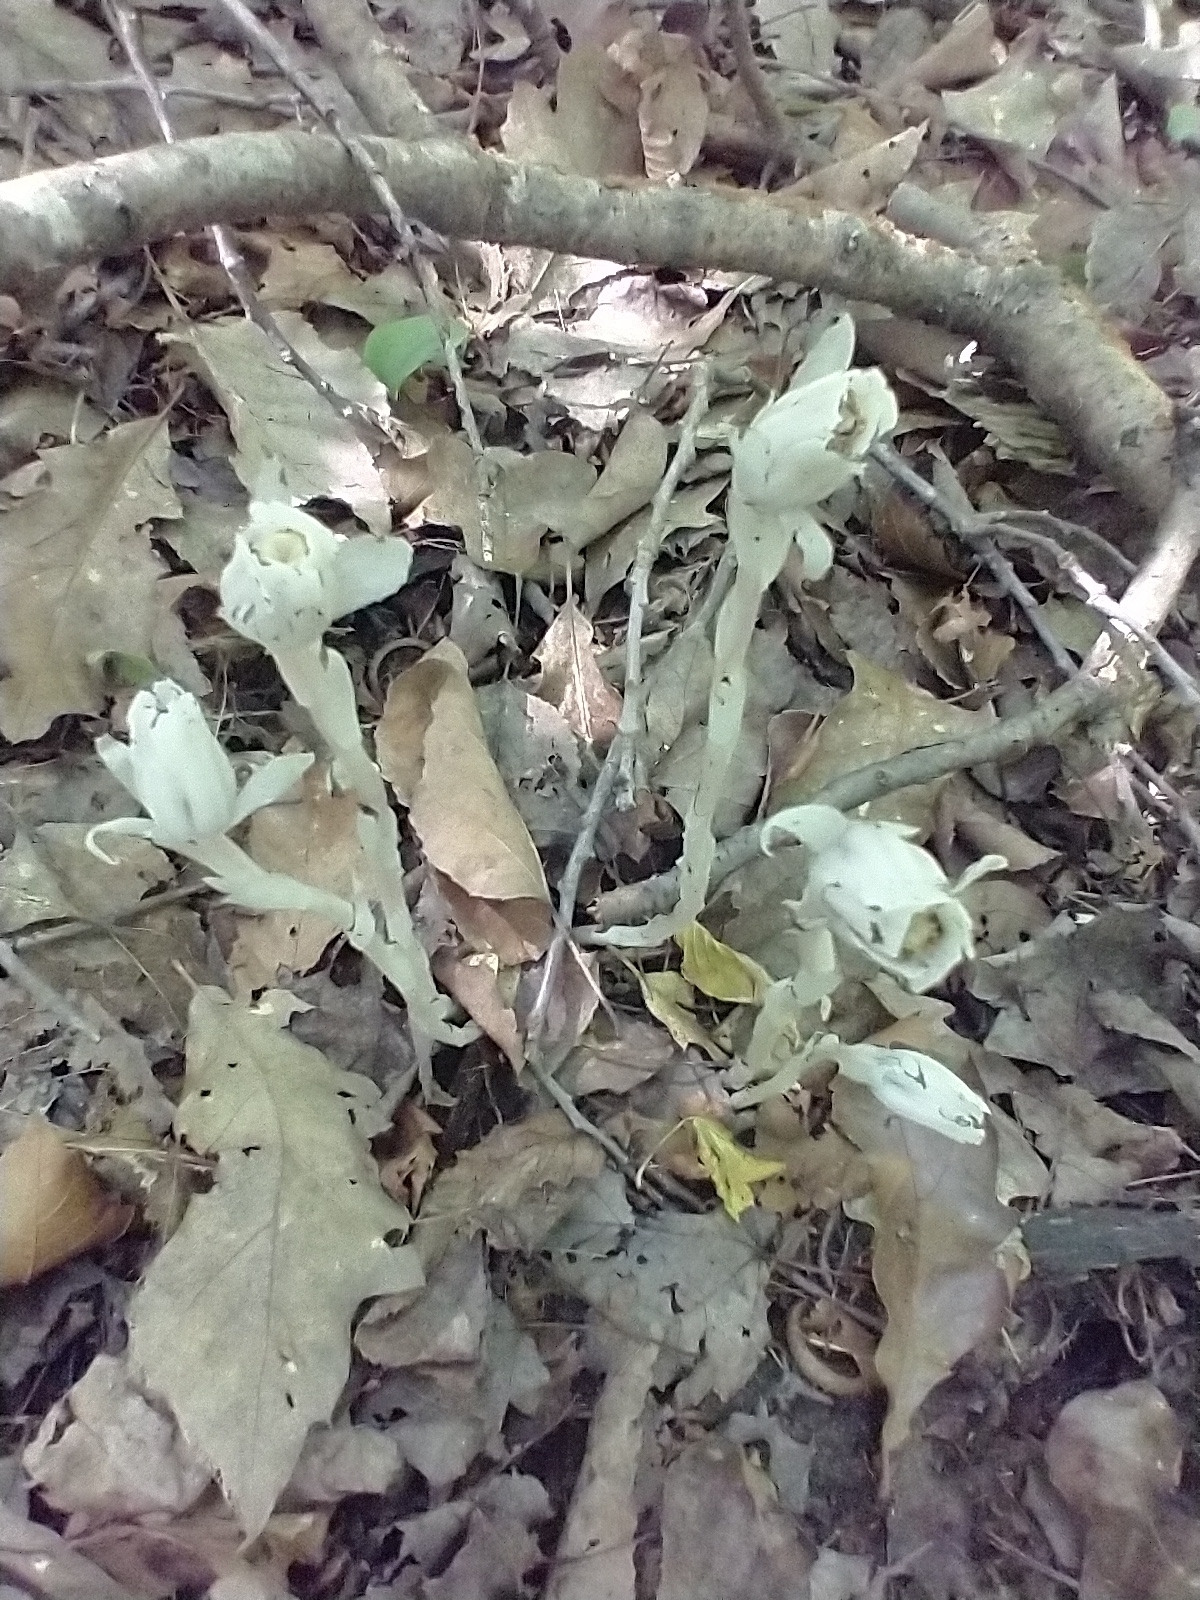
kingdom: Plantae
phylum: Tracheophyta
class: Magnoliopsida
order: Ericales
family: Ericaceae
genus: Monotropa
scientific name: Monotropa uniflora
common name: Convulsion root
